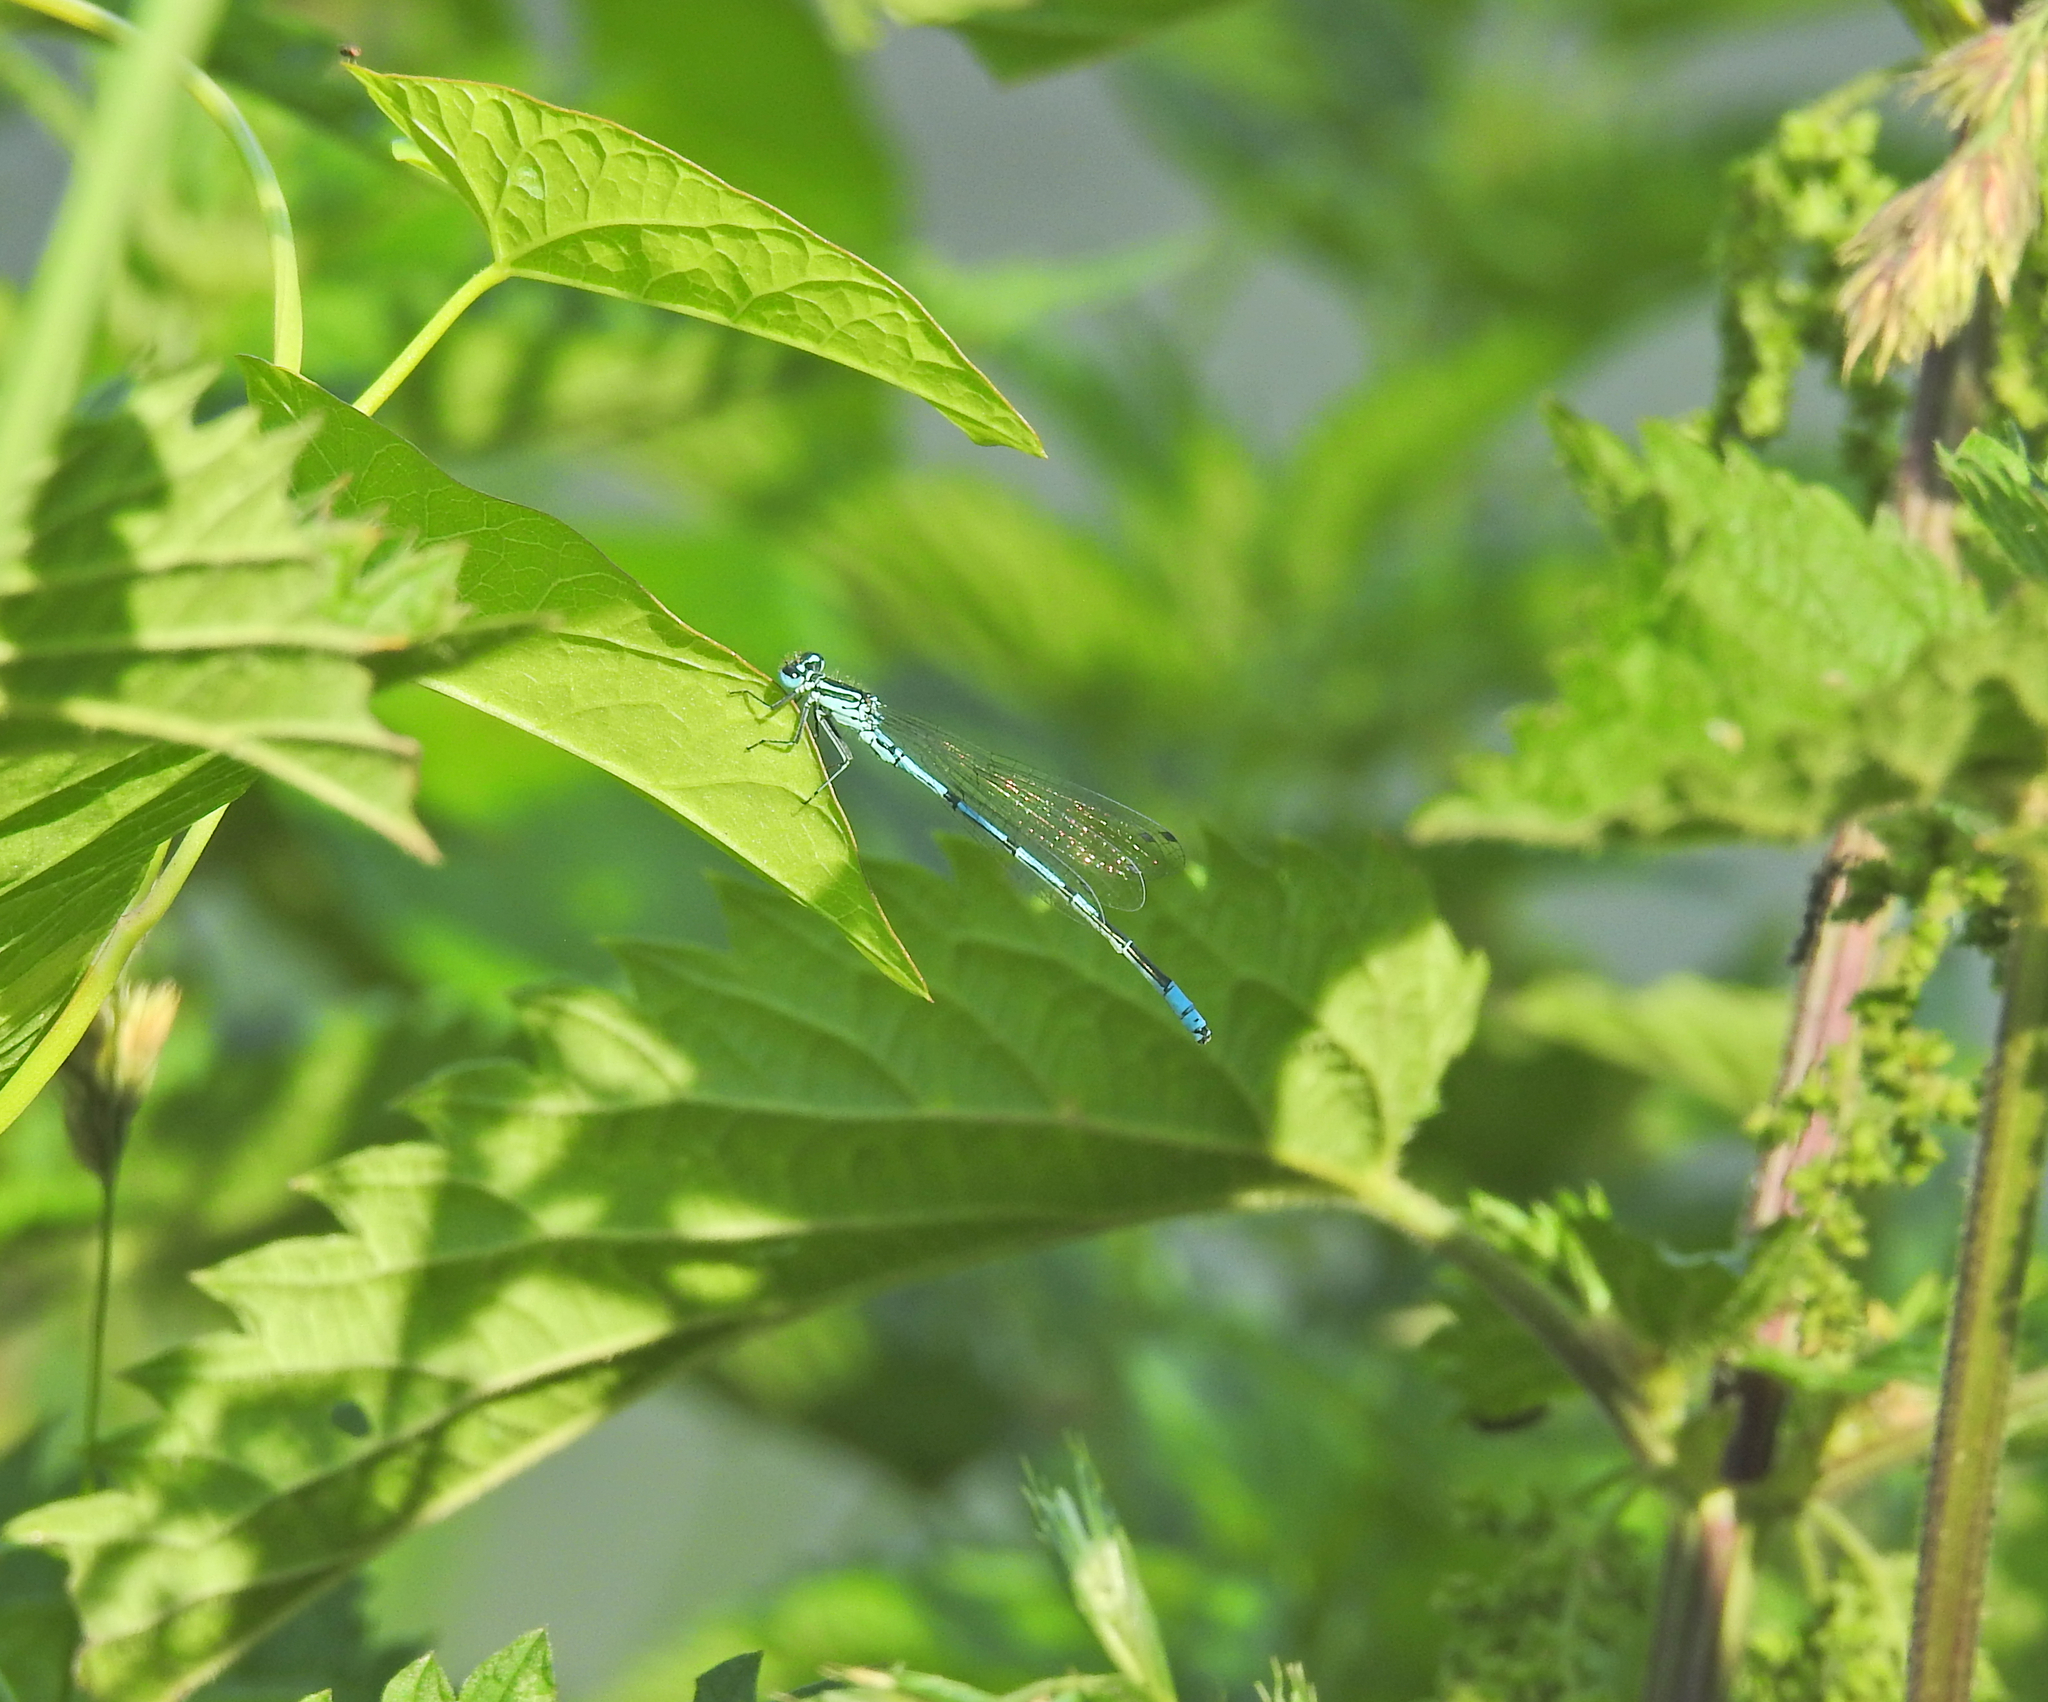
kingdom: Animalia
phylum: Arthropoda
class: Insecta
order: Odonata
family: Coenagrionidae
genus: Coenagrion
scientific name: Coenagrion puella
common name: Azure damselfly
